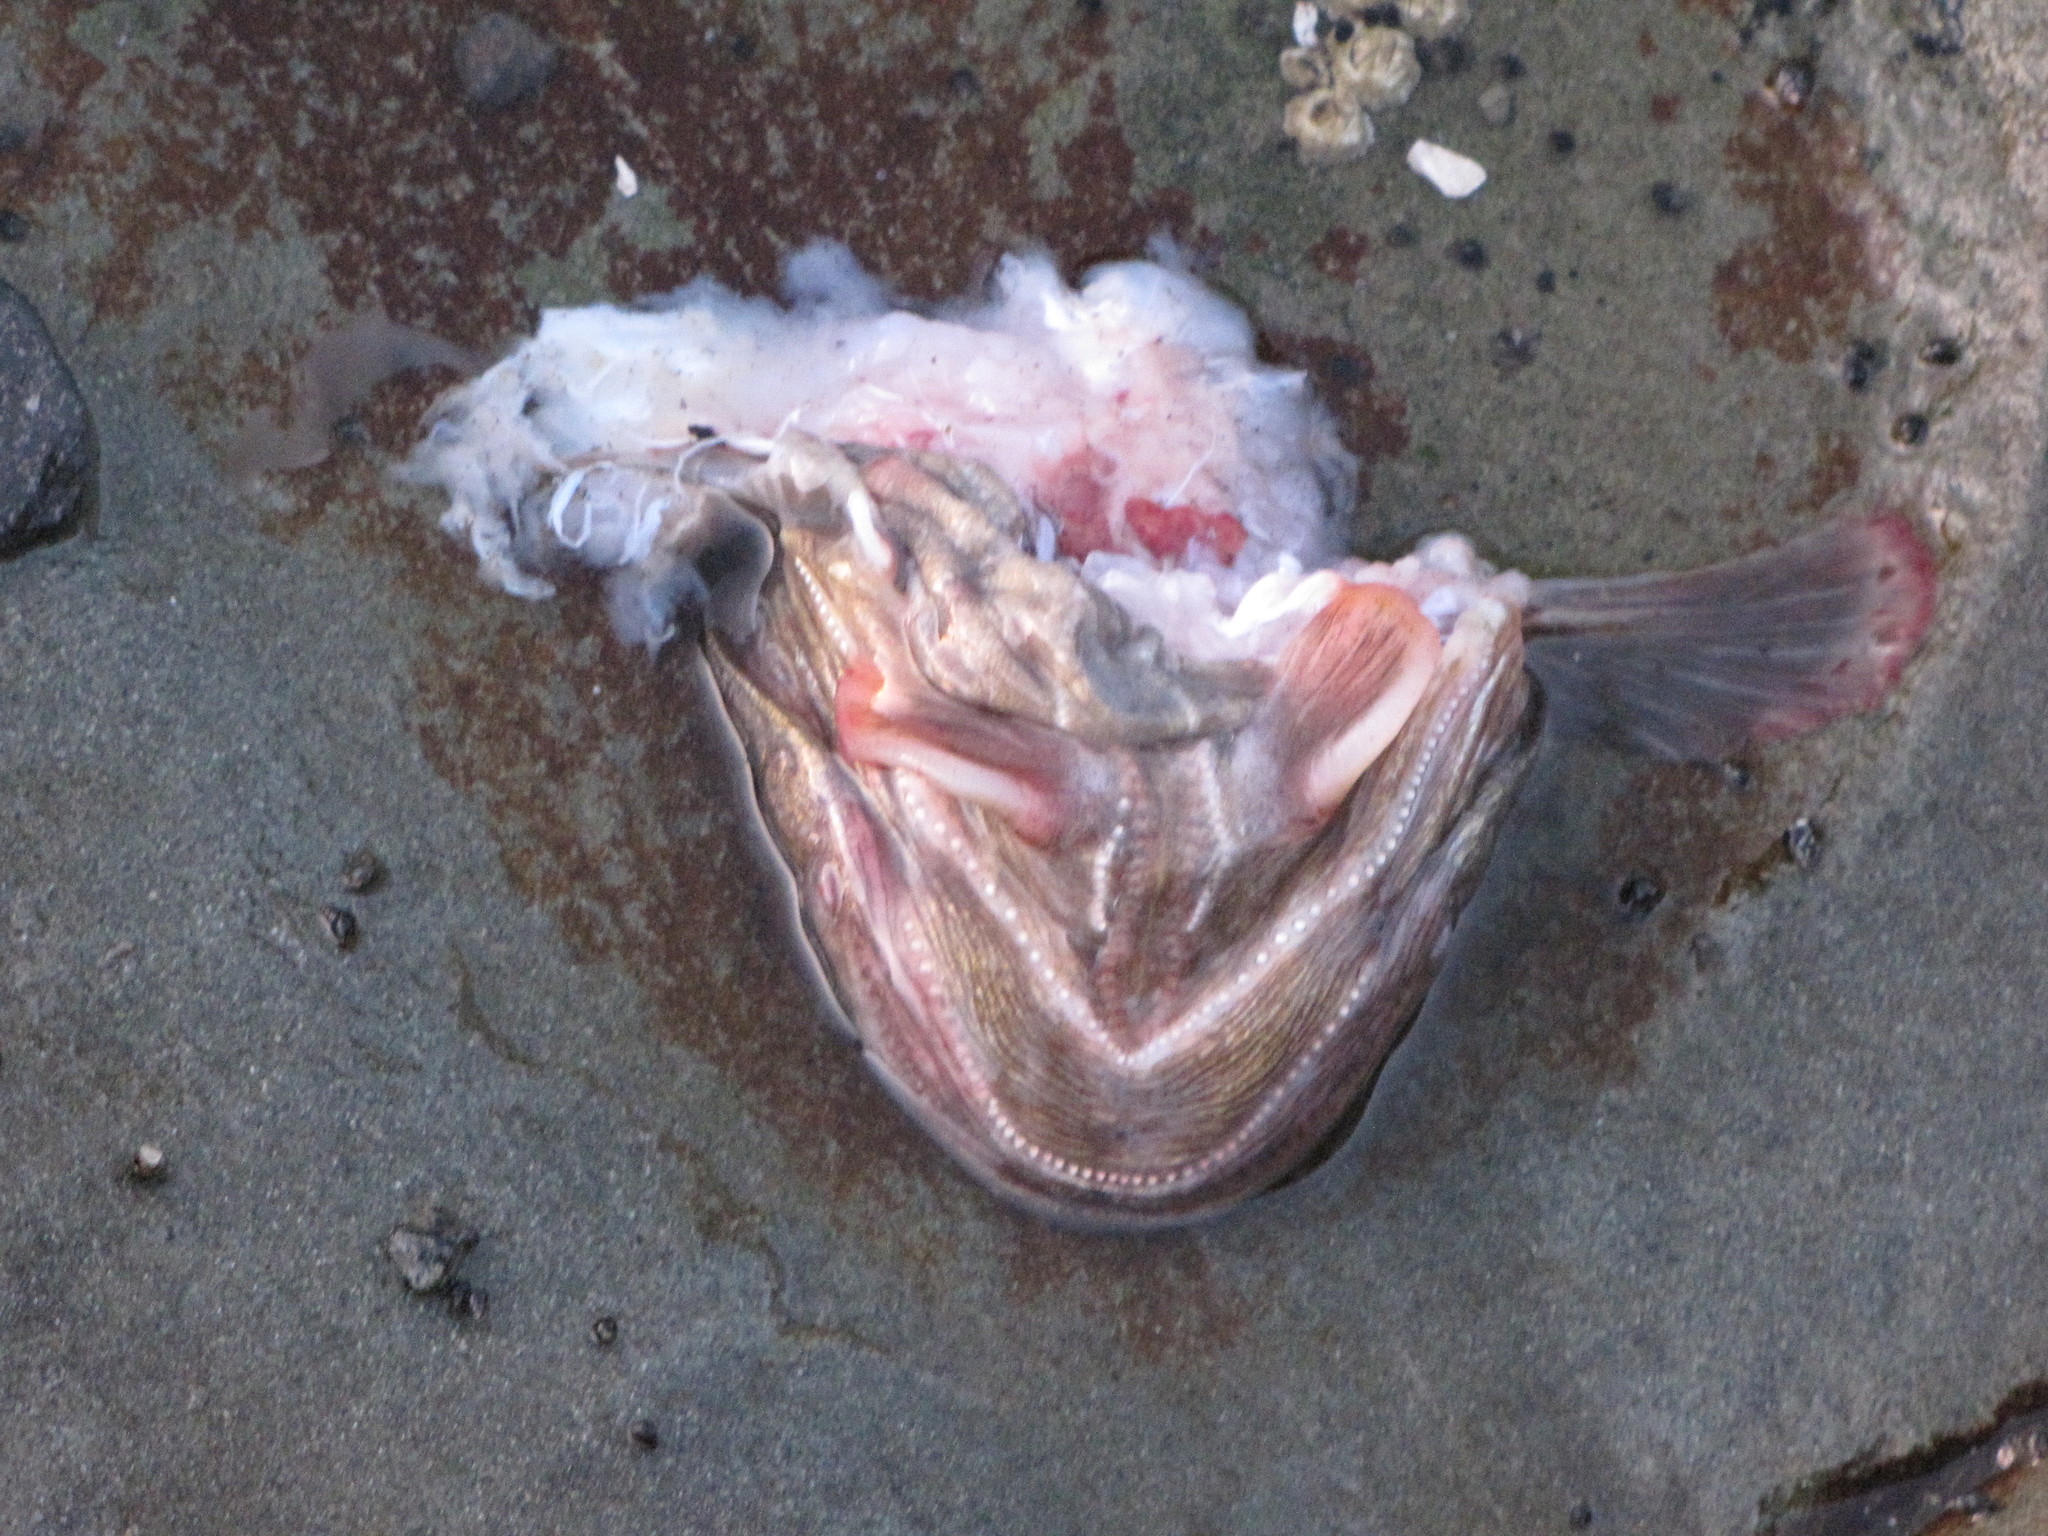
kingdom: Animalia
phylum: Chordata
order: Batrachoidiformes
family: Batrachoididae
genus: Porichthys
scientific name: Porichthys notatus
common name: Plainfin midshipman
